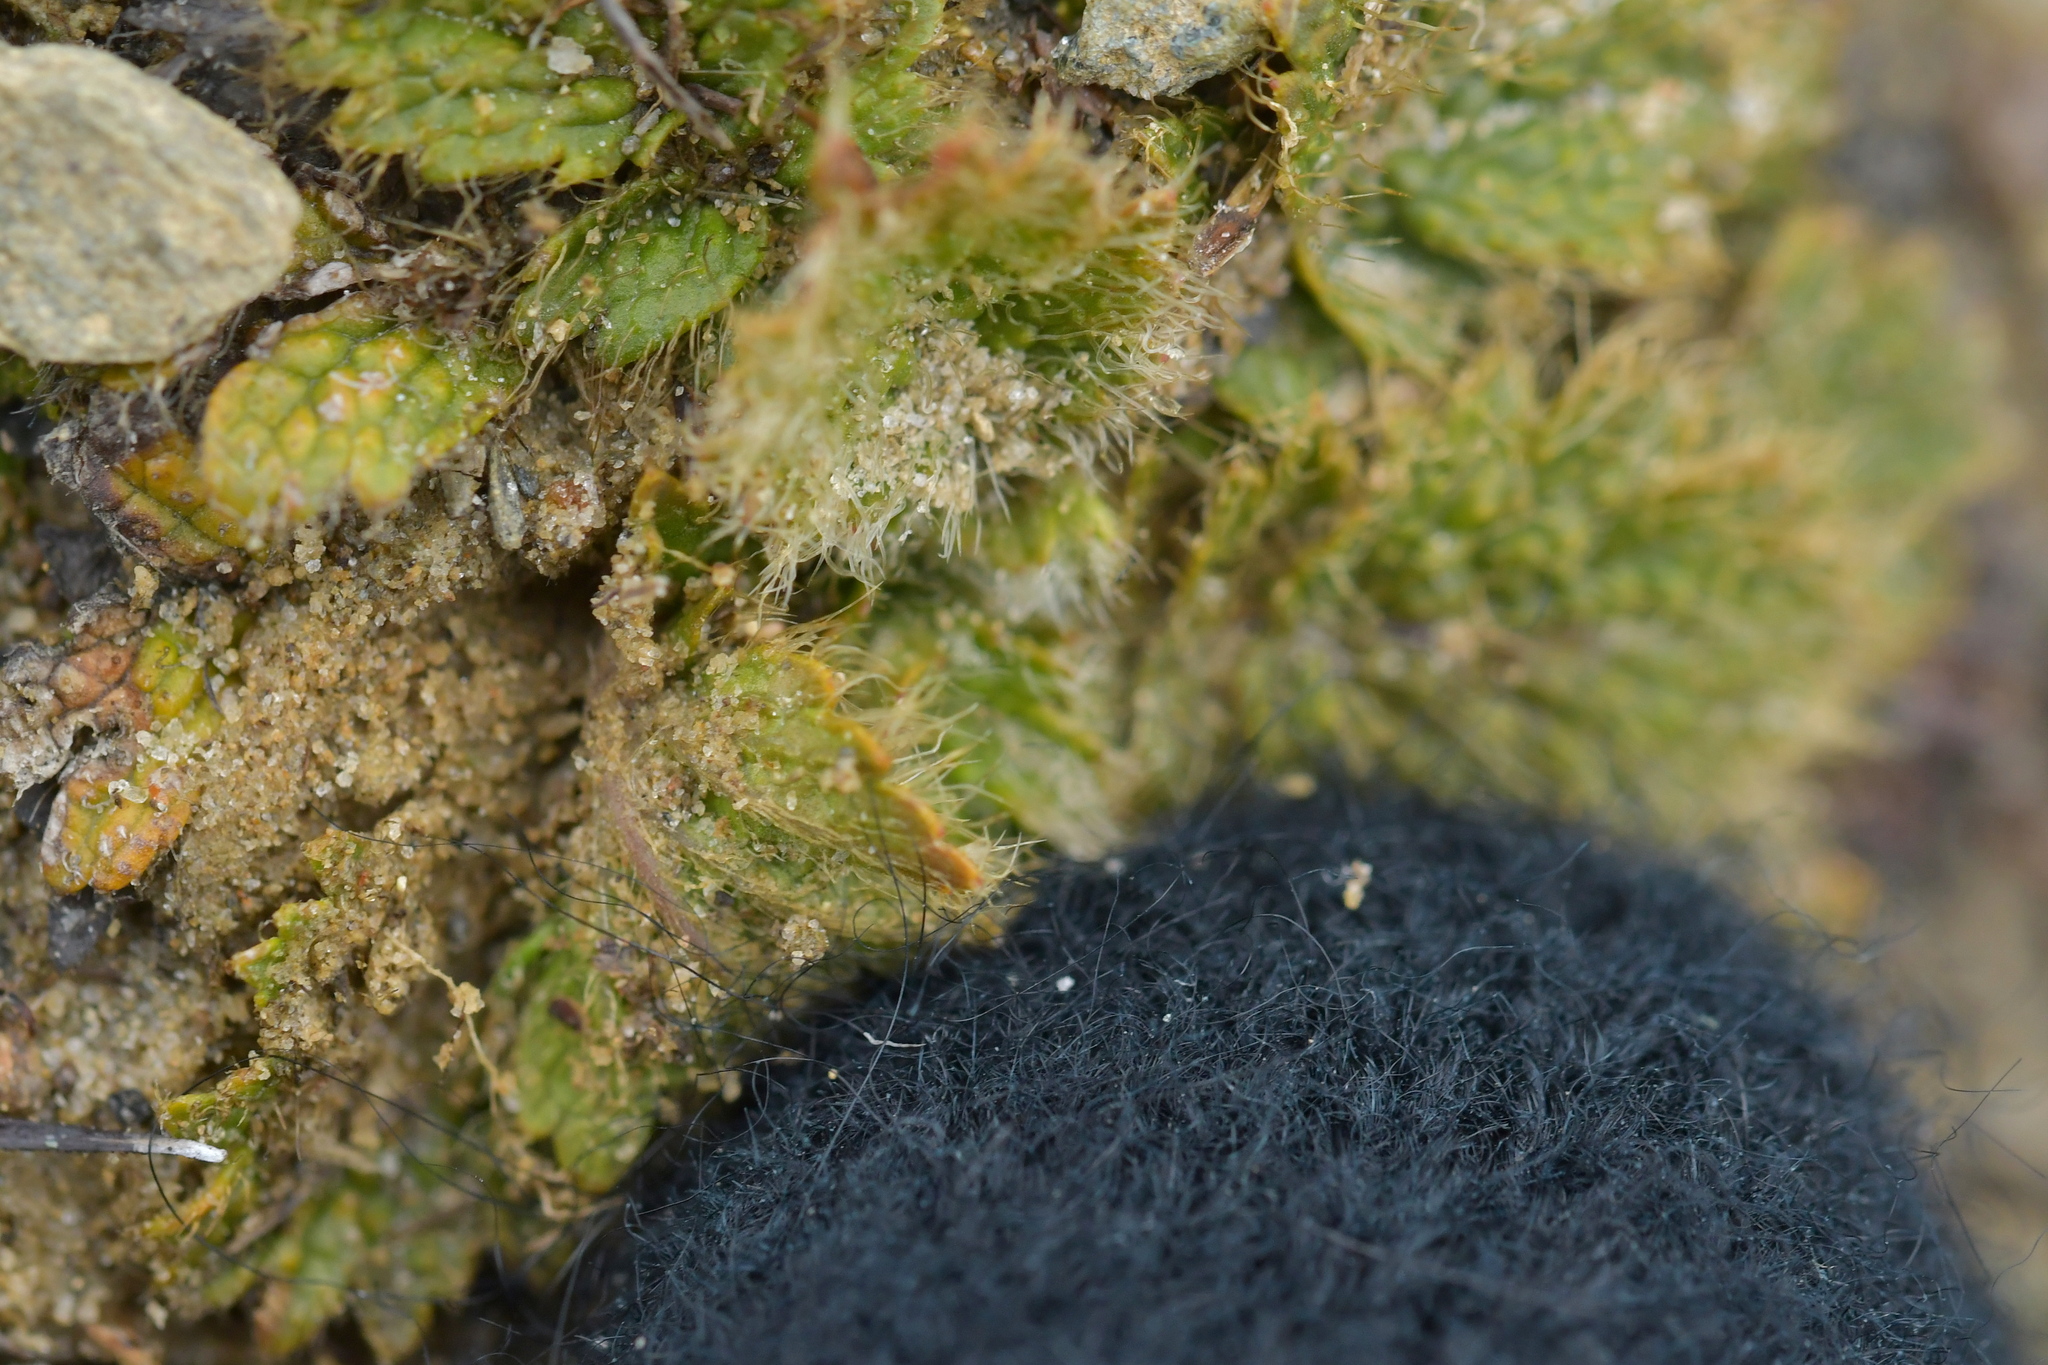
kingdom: Plantae
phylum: Tracheophyta
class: Magnoliopsida
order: Rosales
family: Rosaceae
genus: Geum
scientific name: Geum leiospermum
